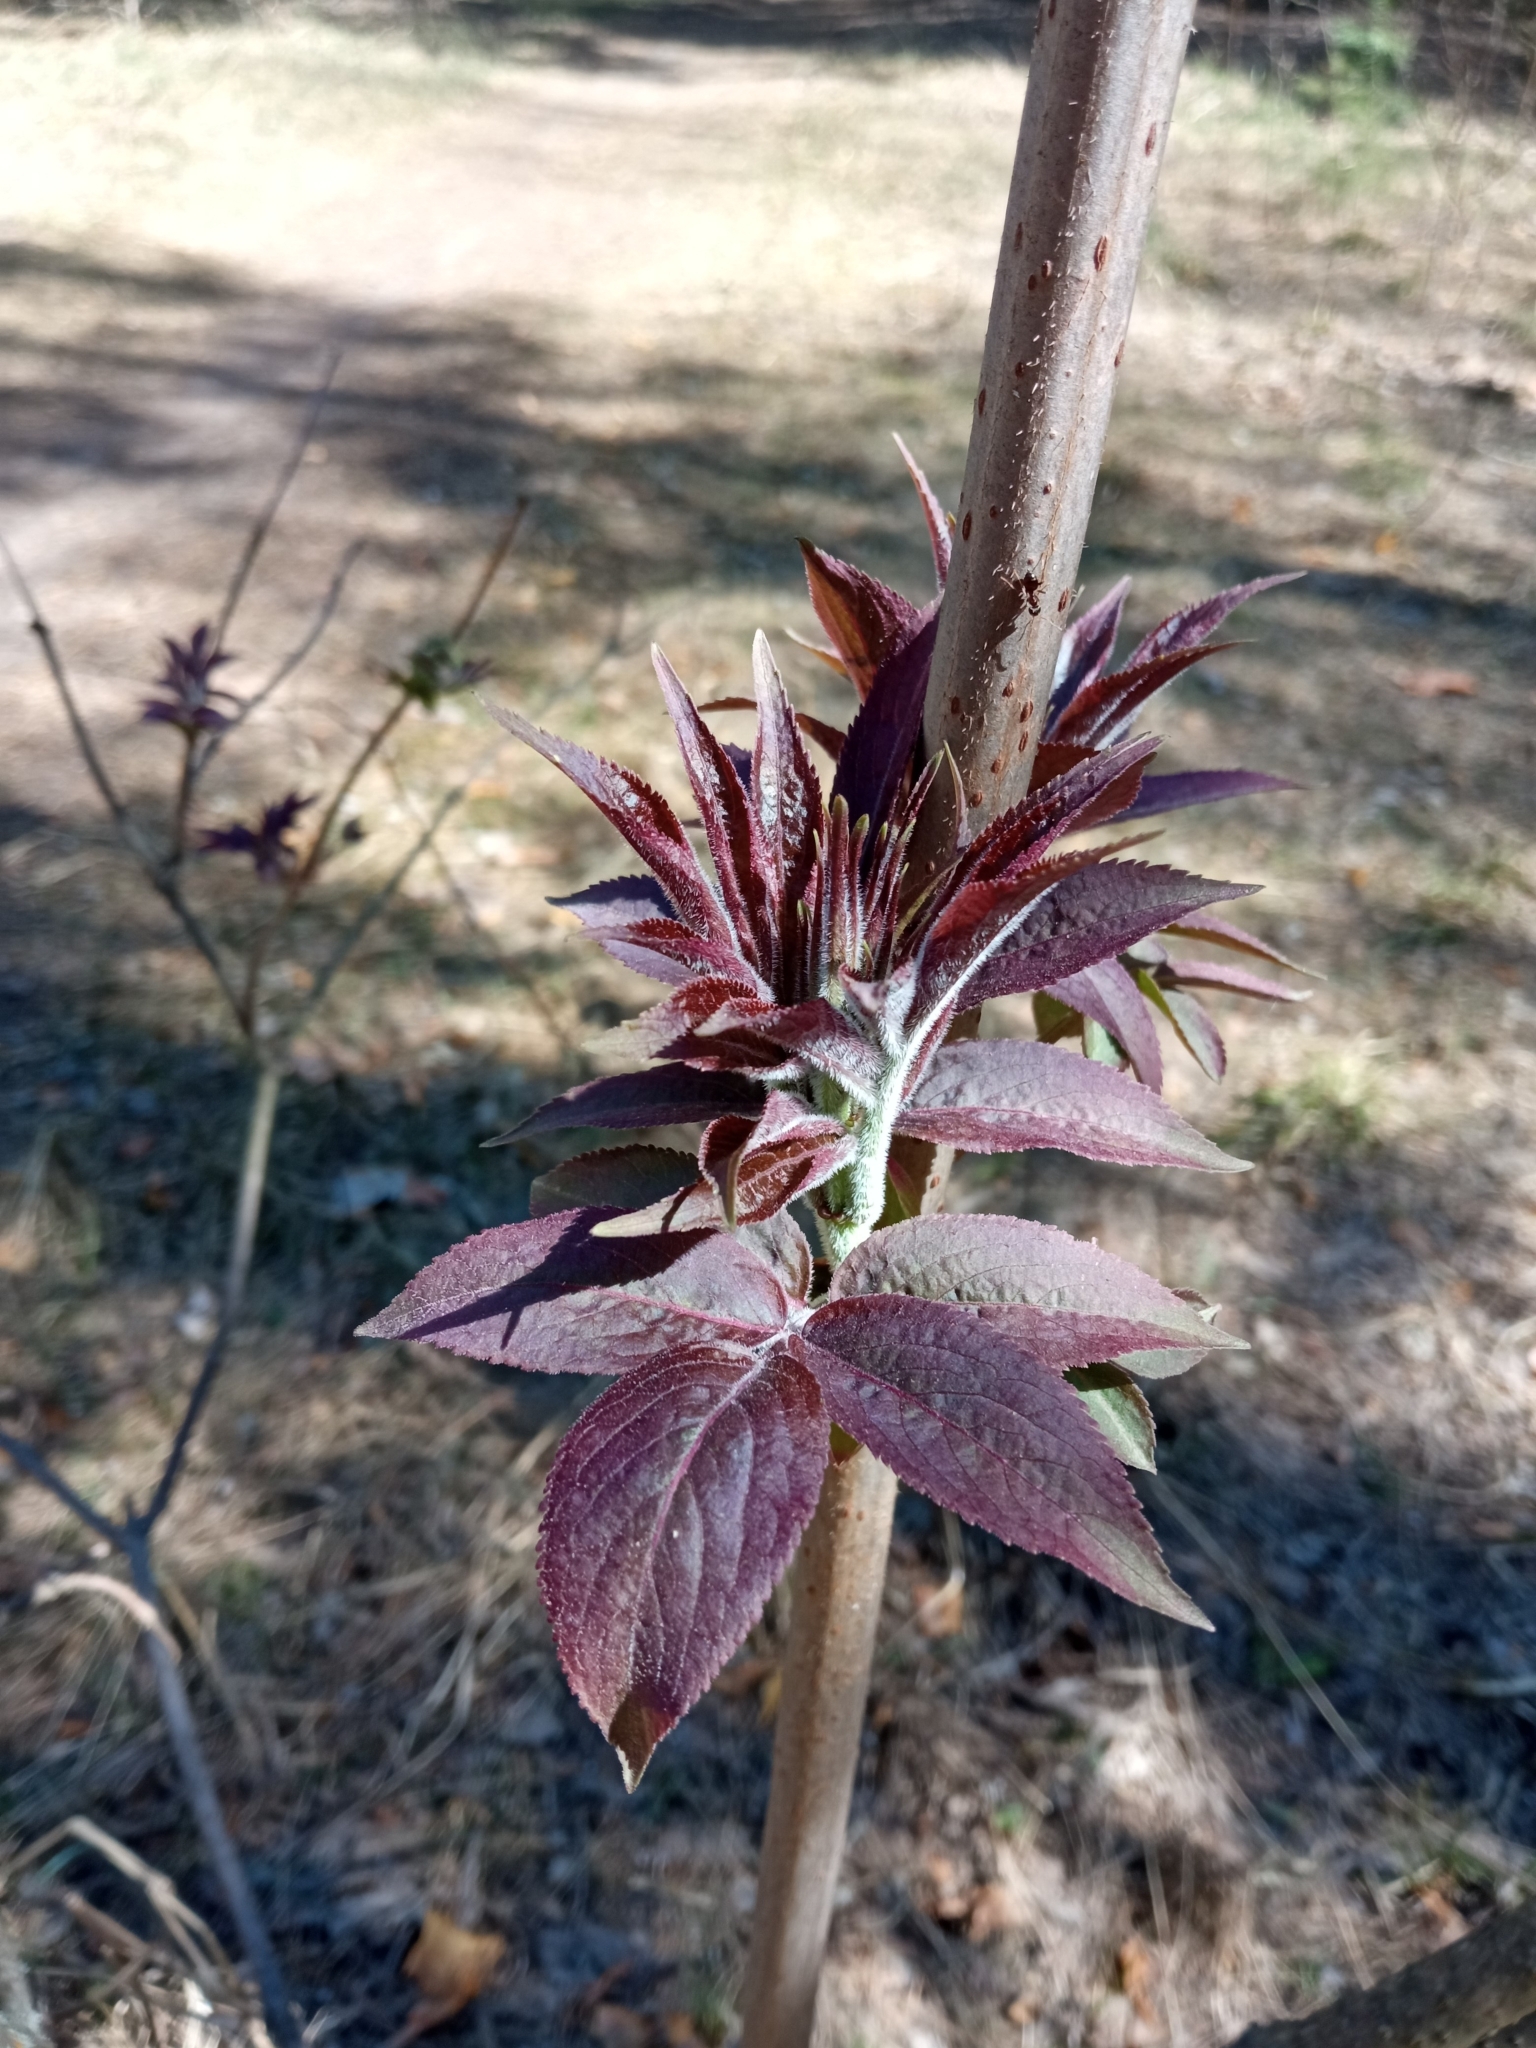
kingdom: Plantae
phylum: Tracheophyta
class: Magnoliopsida
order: Dipsacales
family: Viburnaceae
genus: Sambucus
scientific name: Sambucus racemosa
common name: Red-berried elder
